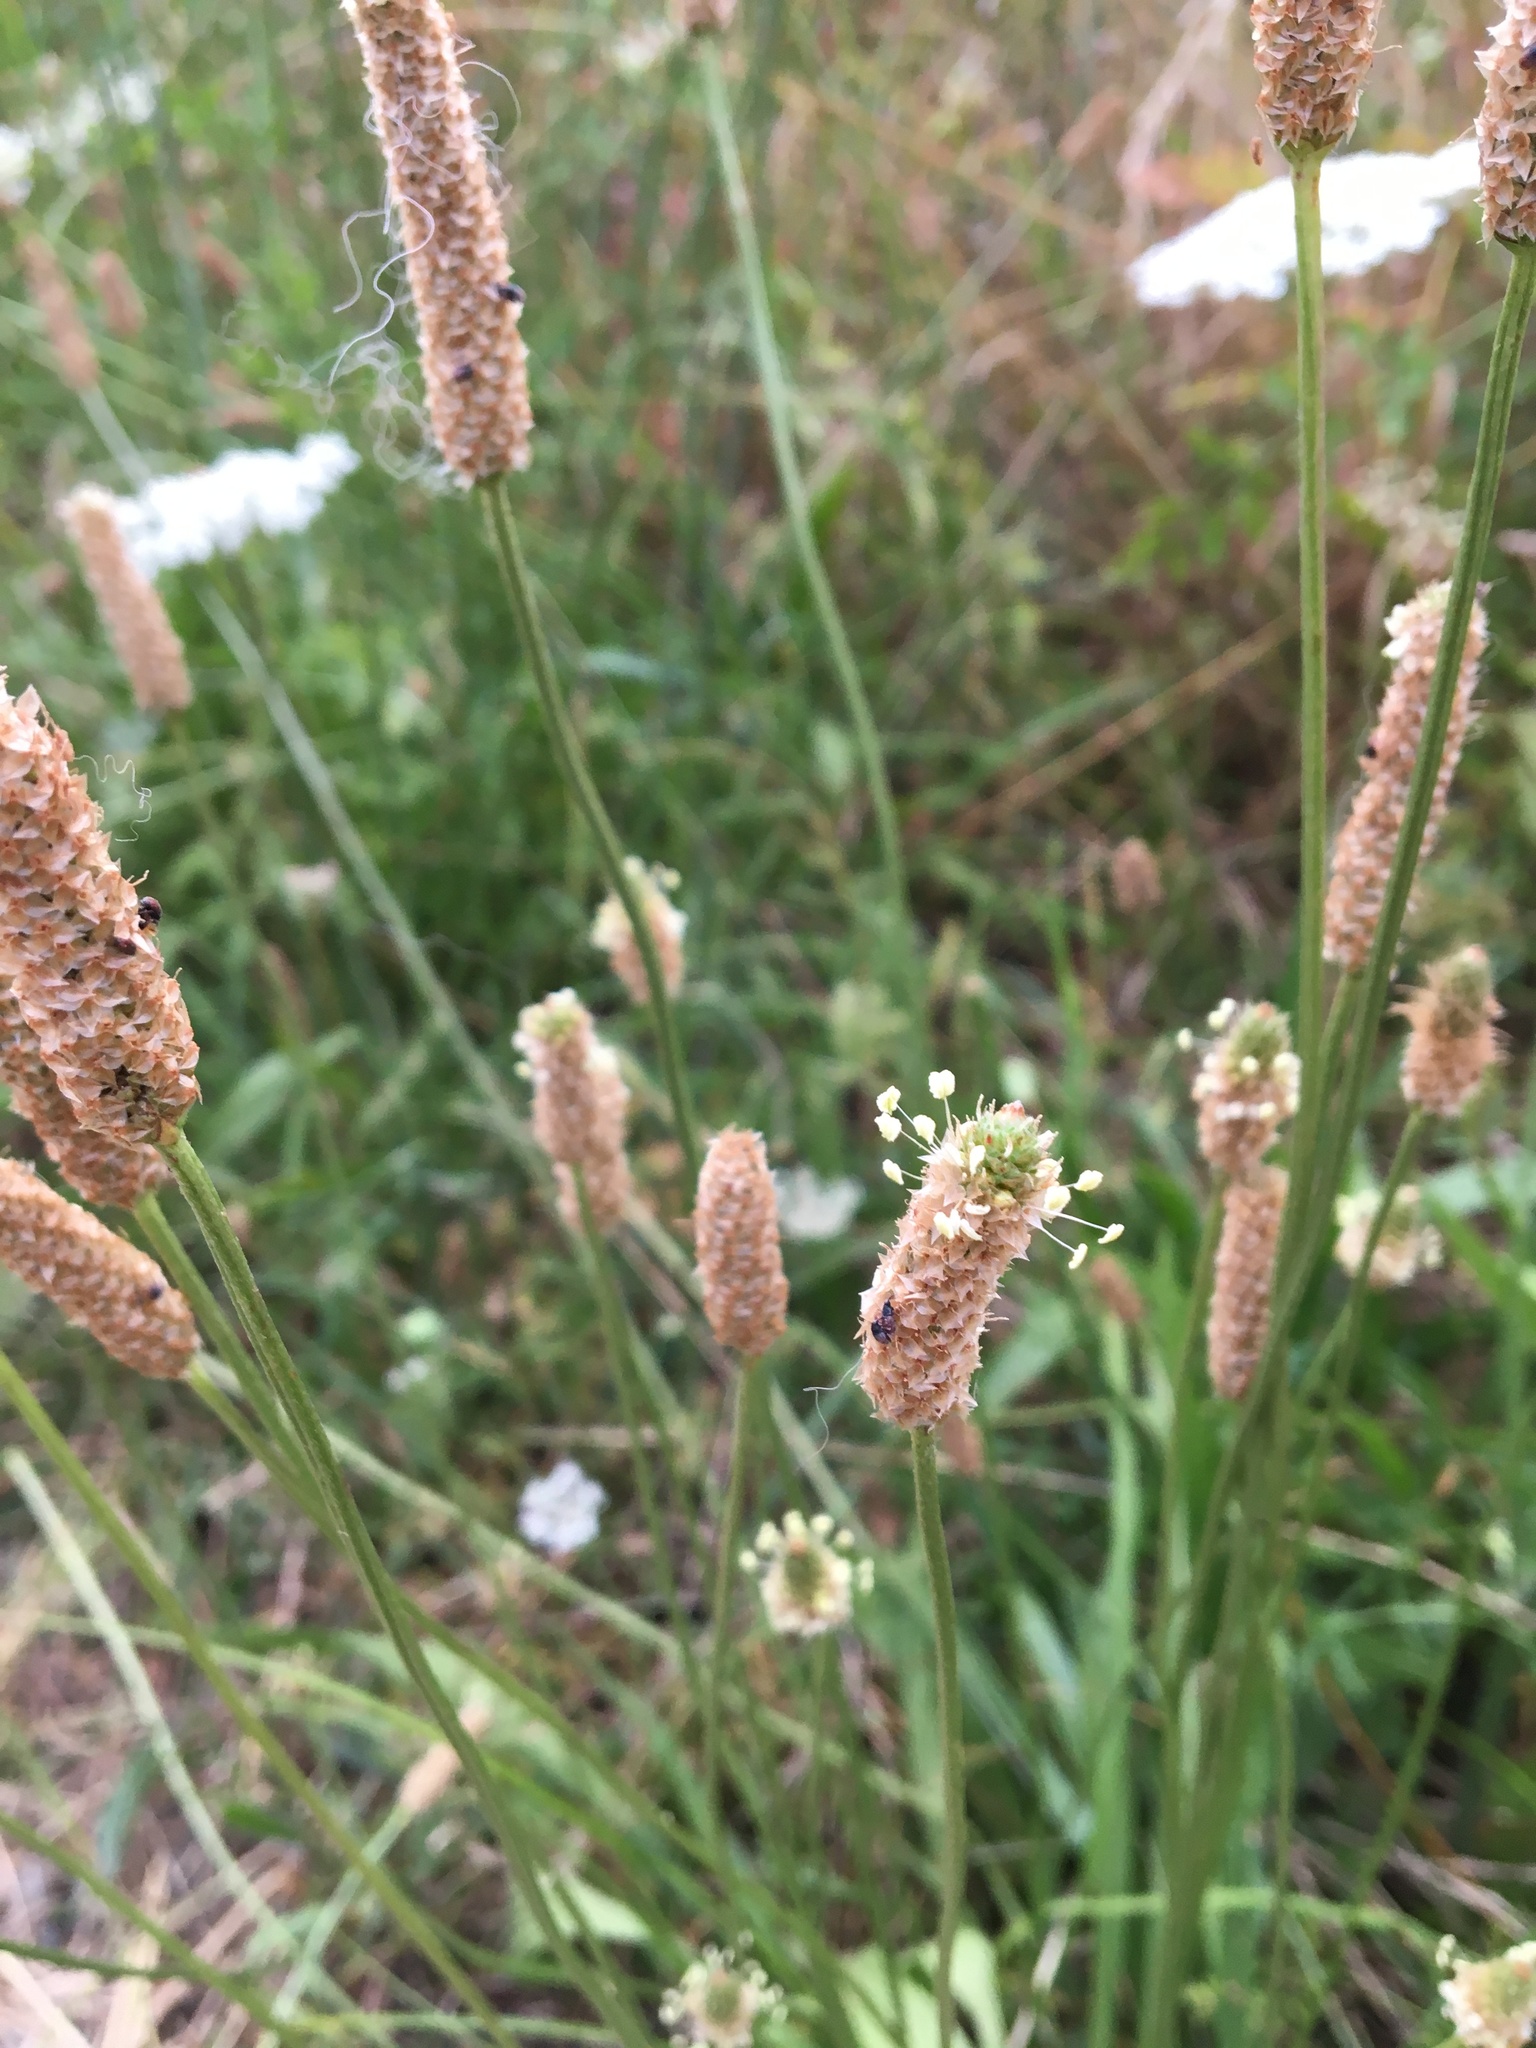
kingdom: Plantae
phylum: Tracheophyta
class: Magnoliopsida
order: Lamiales
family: Plantaginaceae
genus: Plantago
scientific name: Plantago lanceolata
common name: Ribwort plantain
